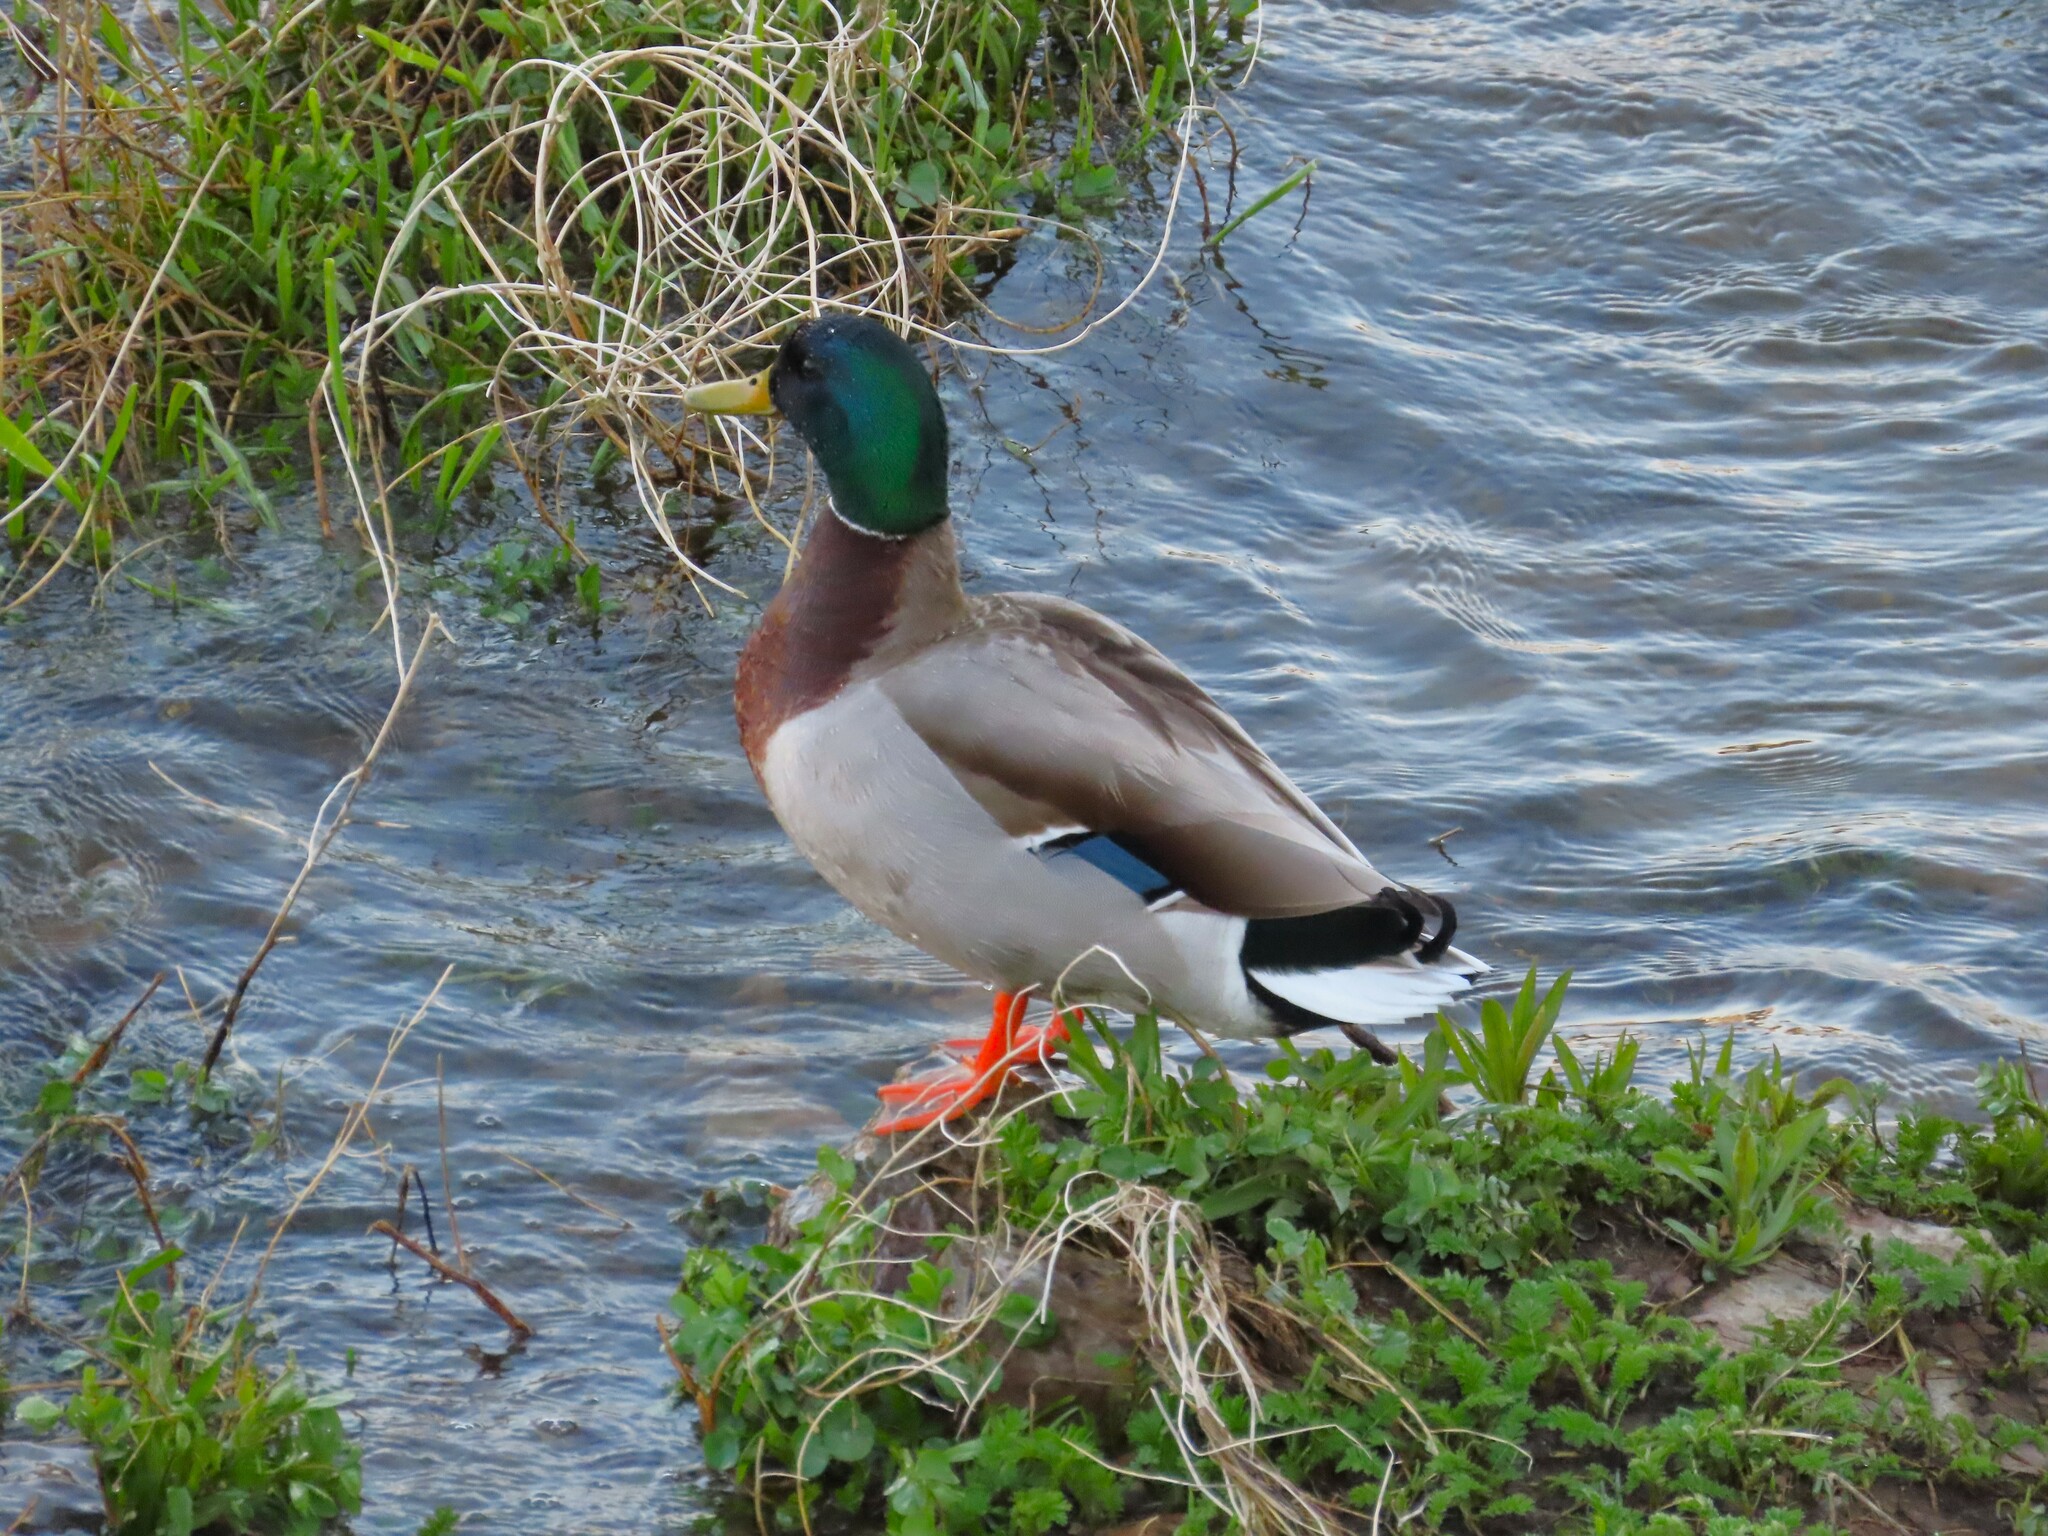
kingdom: Animalia
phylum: Chordata
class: Aves
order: Anseriformes
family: Anatidae
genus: Anas
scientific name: Anas platyrhynchos
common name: Mallard
